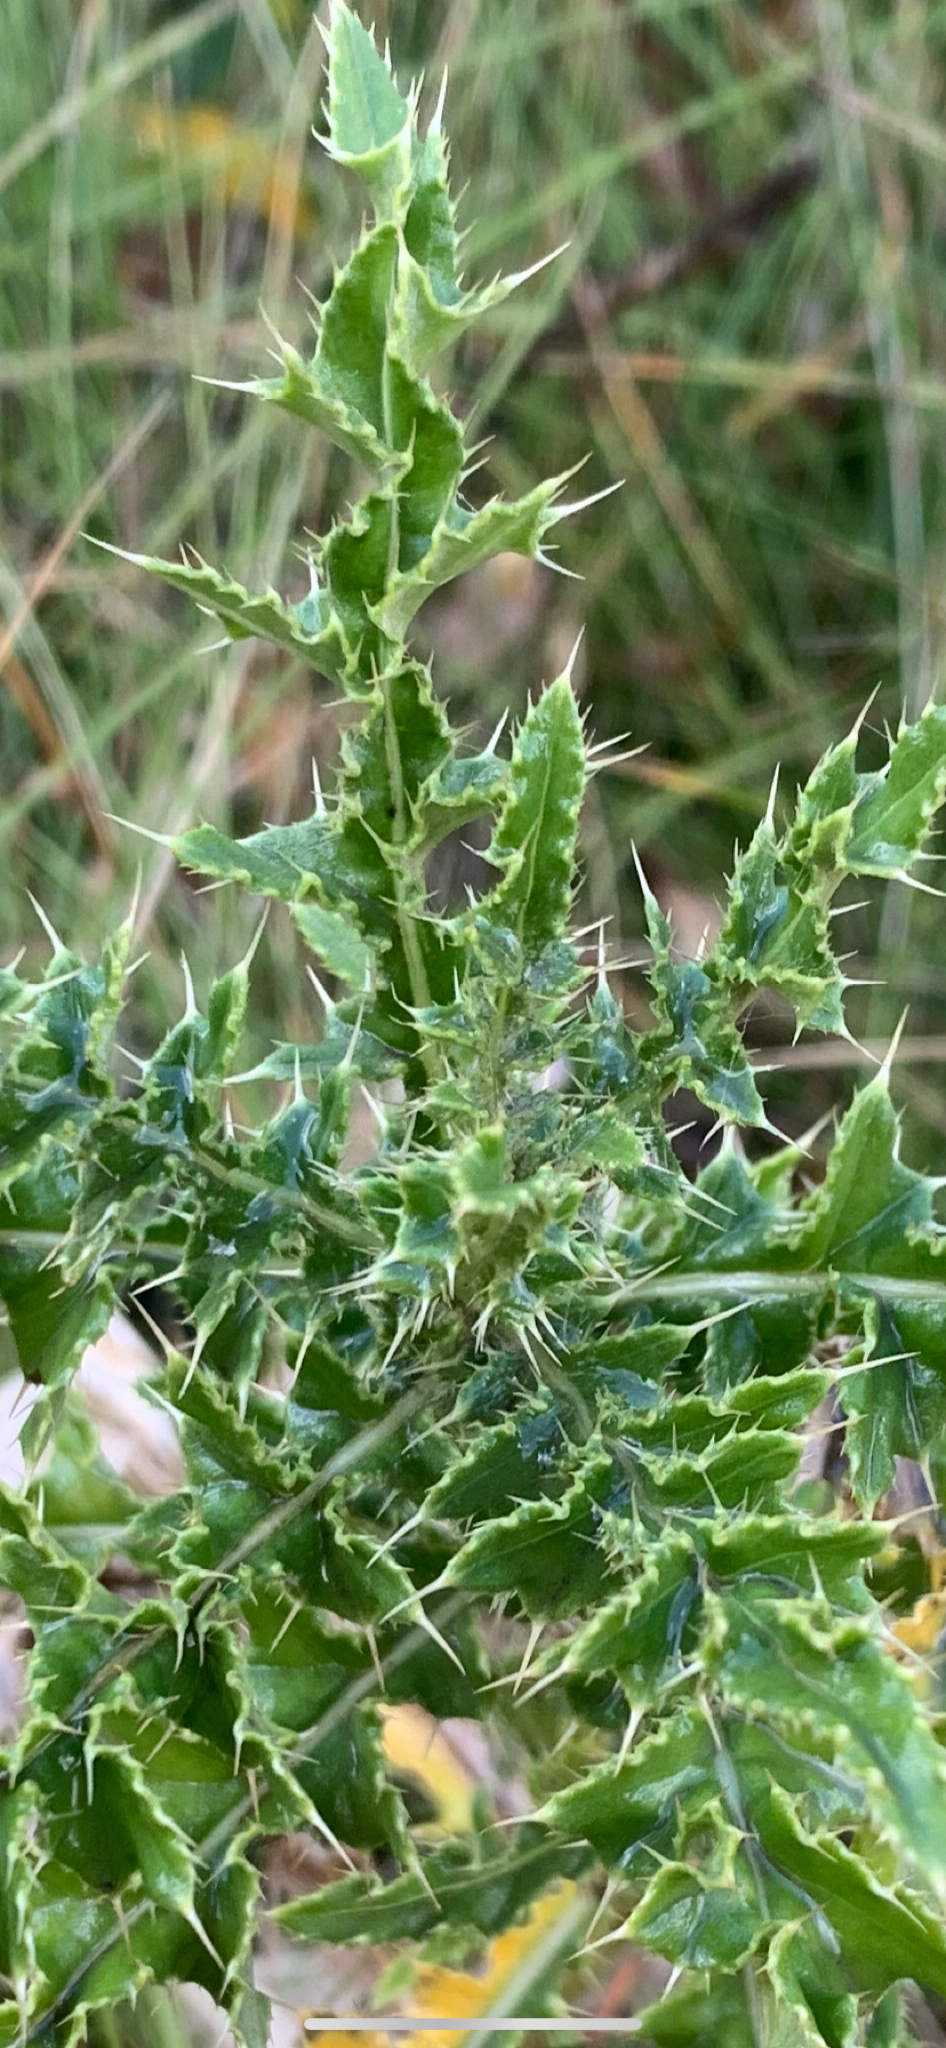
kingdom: Plantae
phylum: Tracheophyta
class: Magnoliopsida
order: Asterales
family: Asteraceae
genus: Cirsium
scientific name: Cirsium vulgare
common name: Bull thistle
